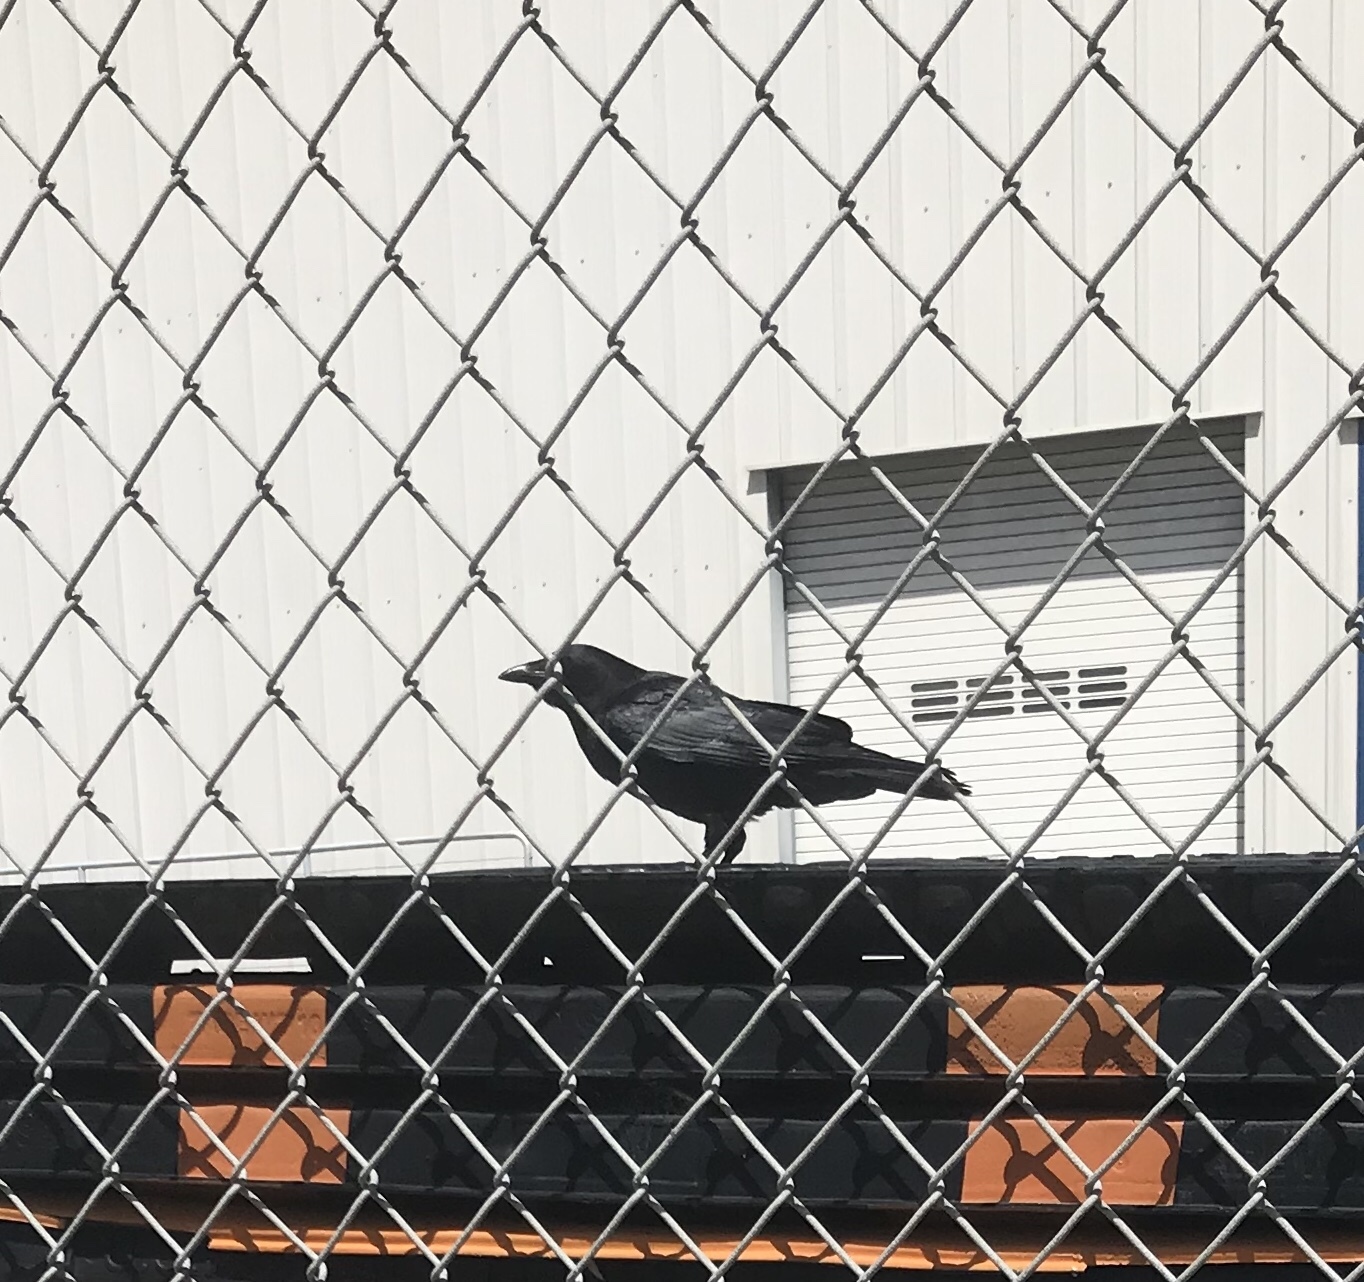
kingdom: Animalia
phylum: Chordata
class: Aves
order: Passeriformes
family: Corvidae
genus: Corvus
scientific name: Corvus corax
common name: Common raven
